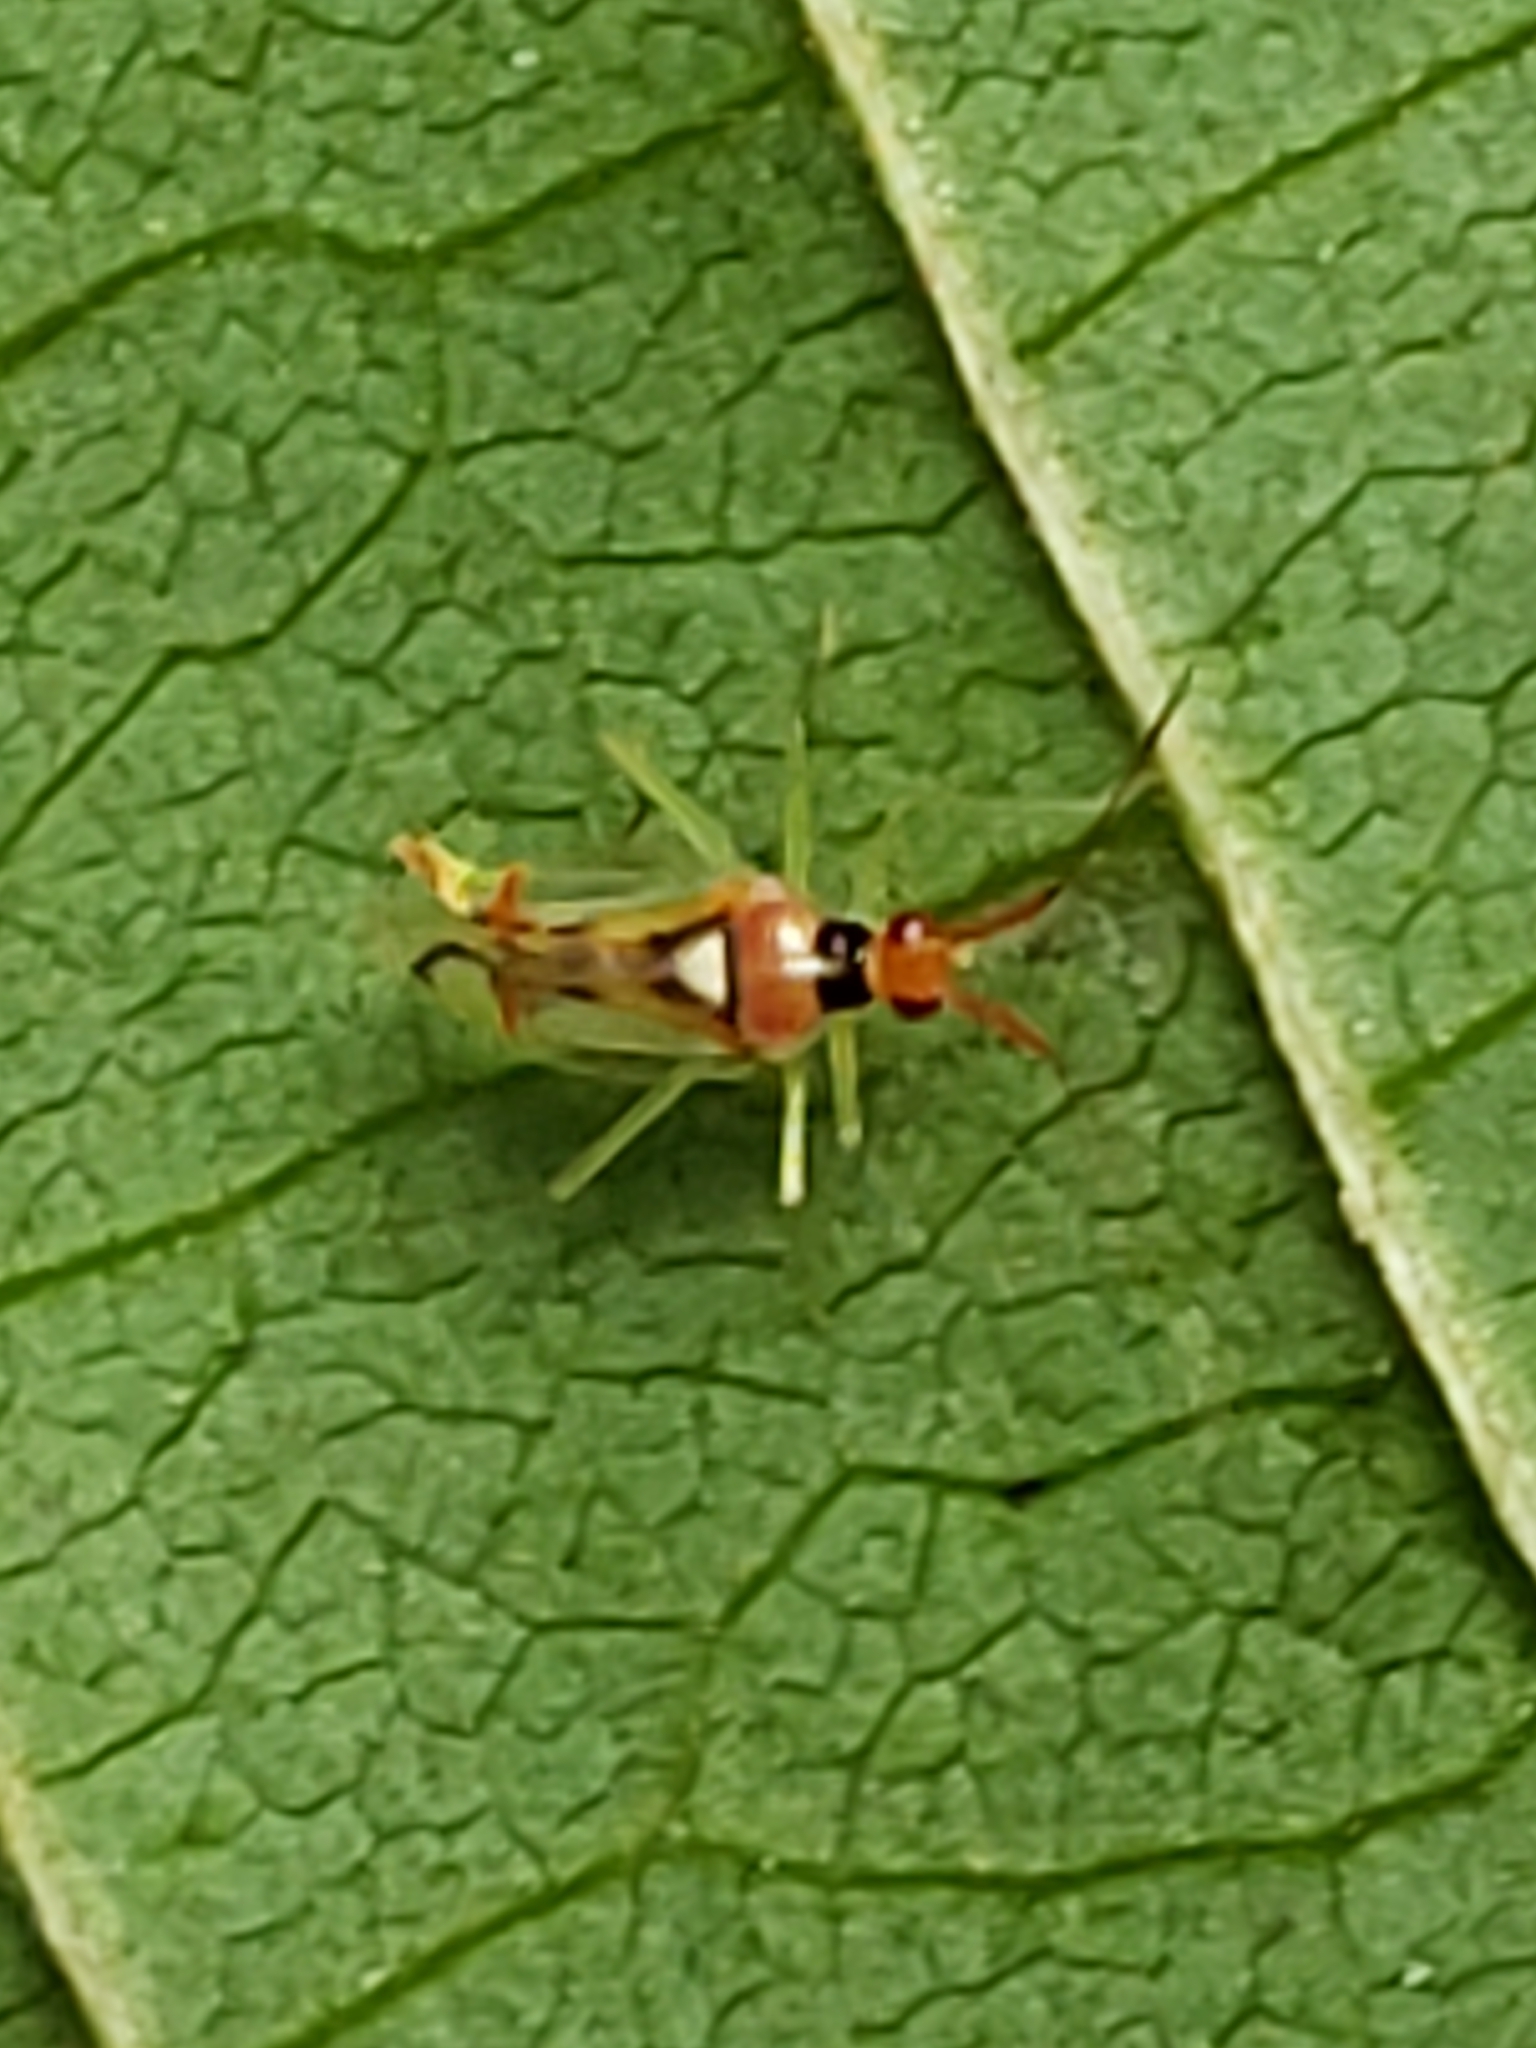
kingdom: Animalia
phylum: Arthropoda
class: Insecta
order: Hemiptera
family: Miridae
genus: Hyaliodes
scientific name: Hyaliodes harti
